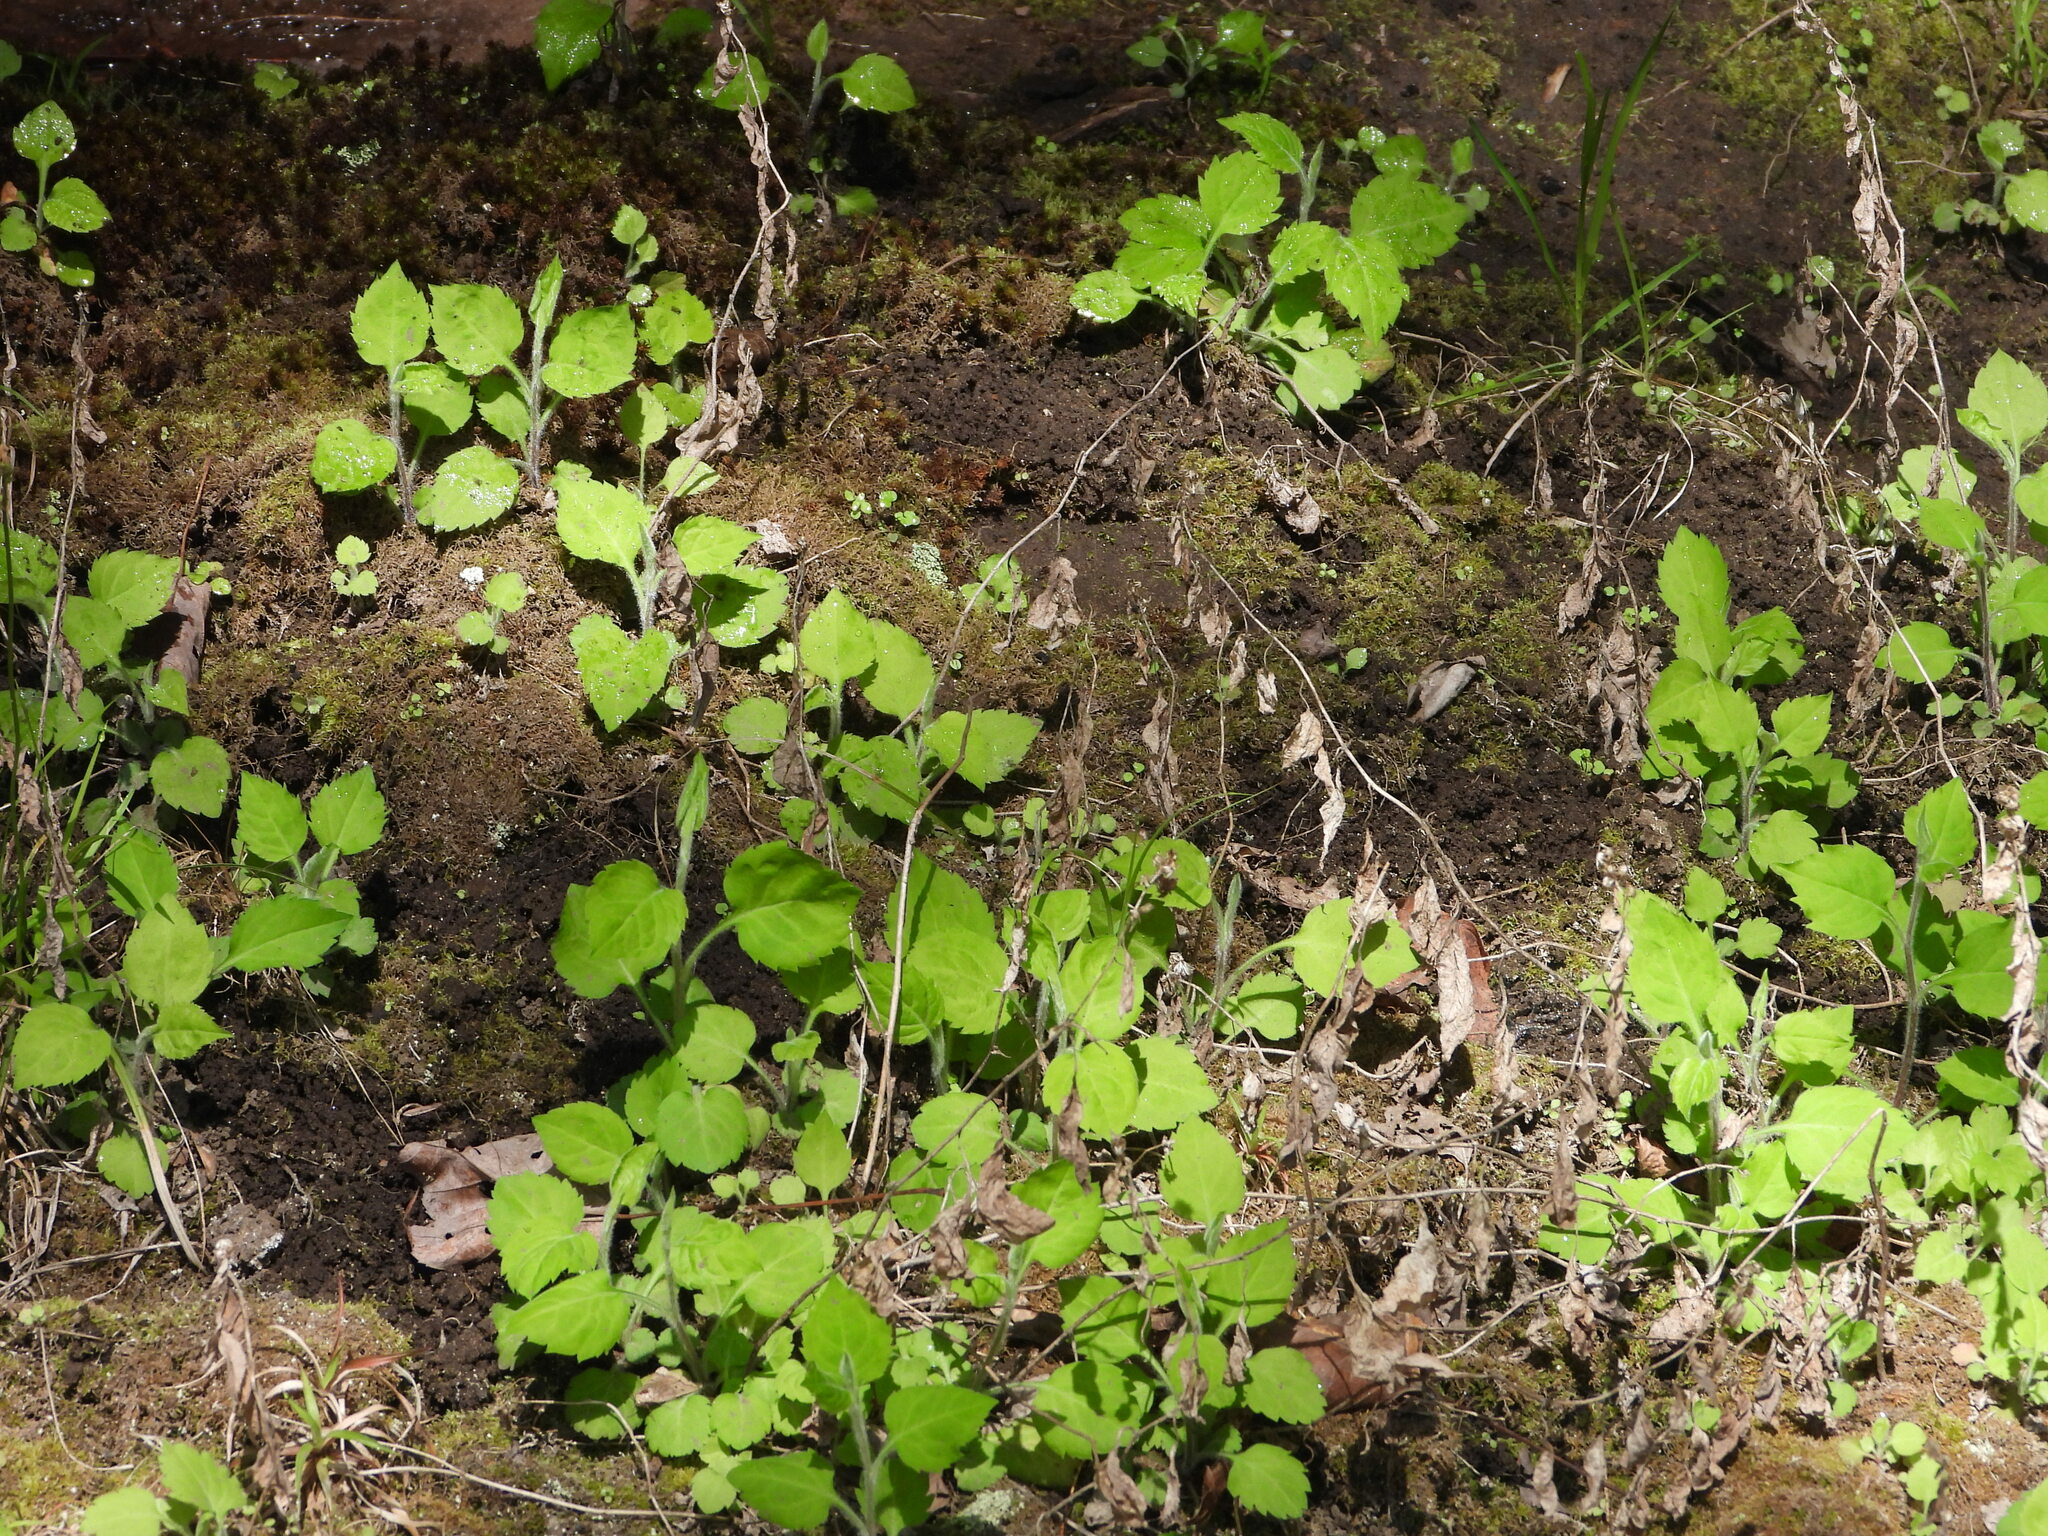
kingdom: Plantae
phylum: Tracheophyta
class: Magnoliopsida
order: Asterales
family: Asteraceae
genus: Solidago
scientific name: Solidago albopilosa
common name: White-hair goldenrod
